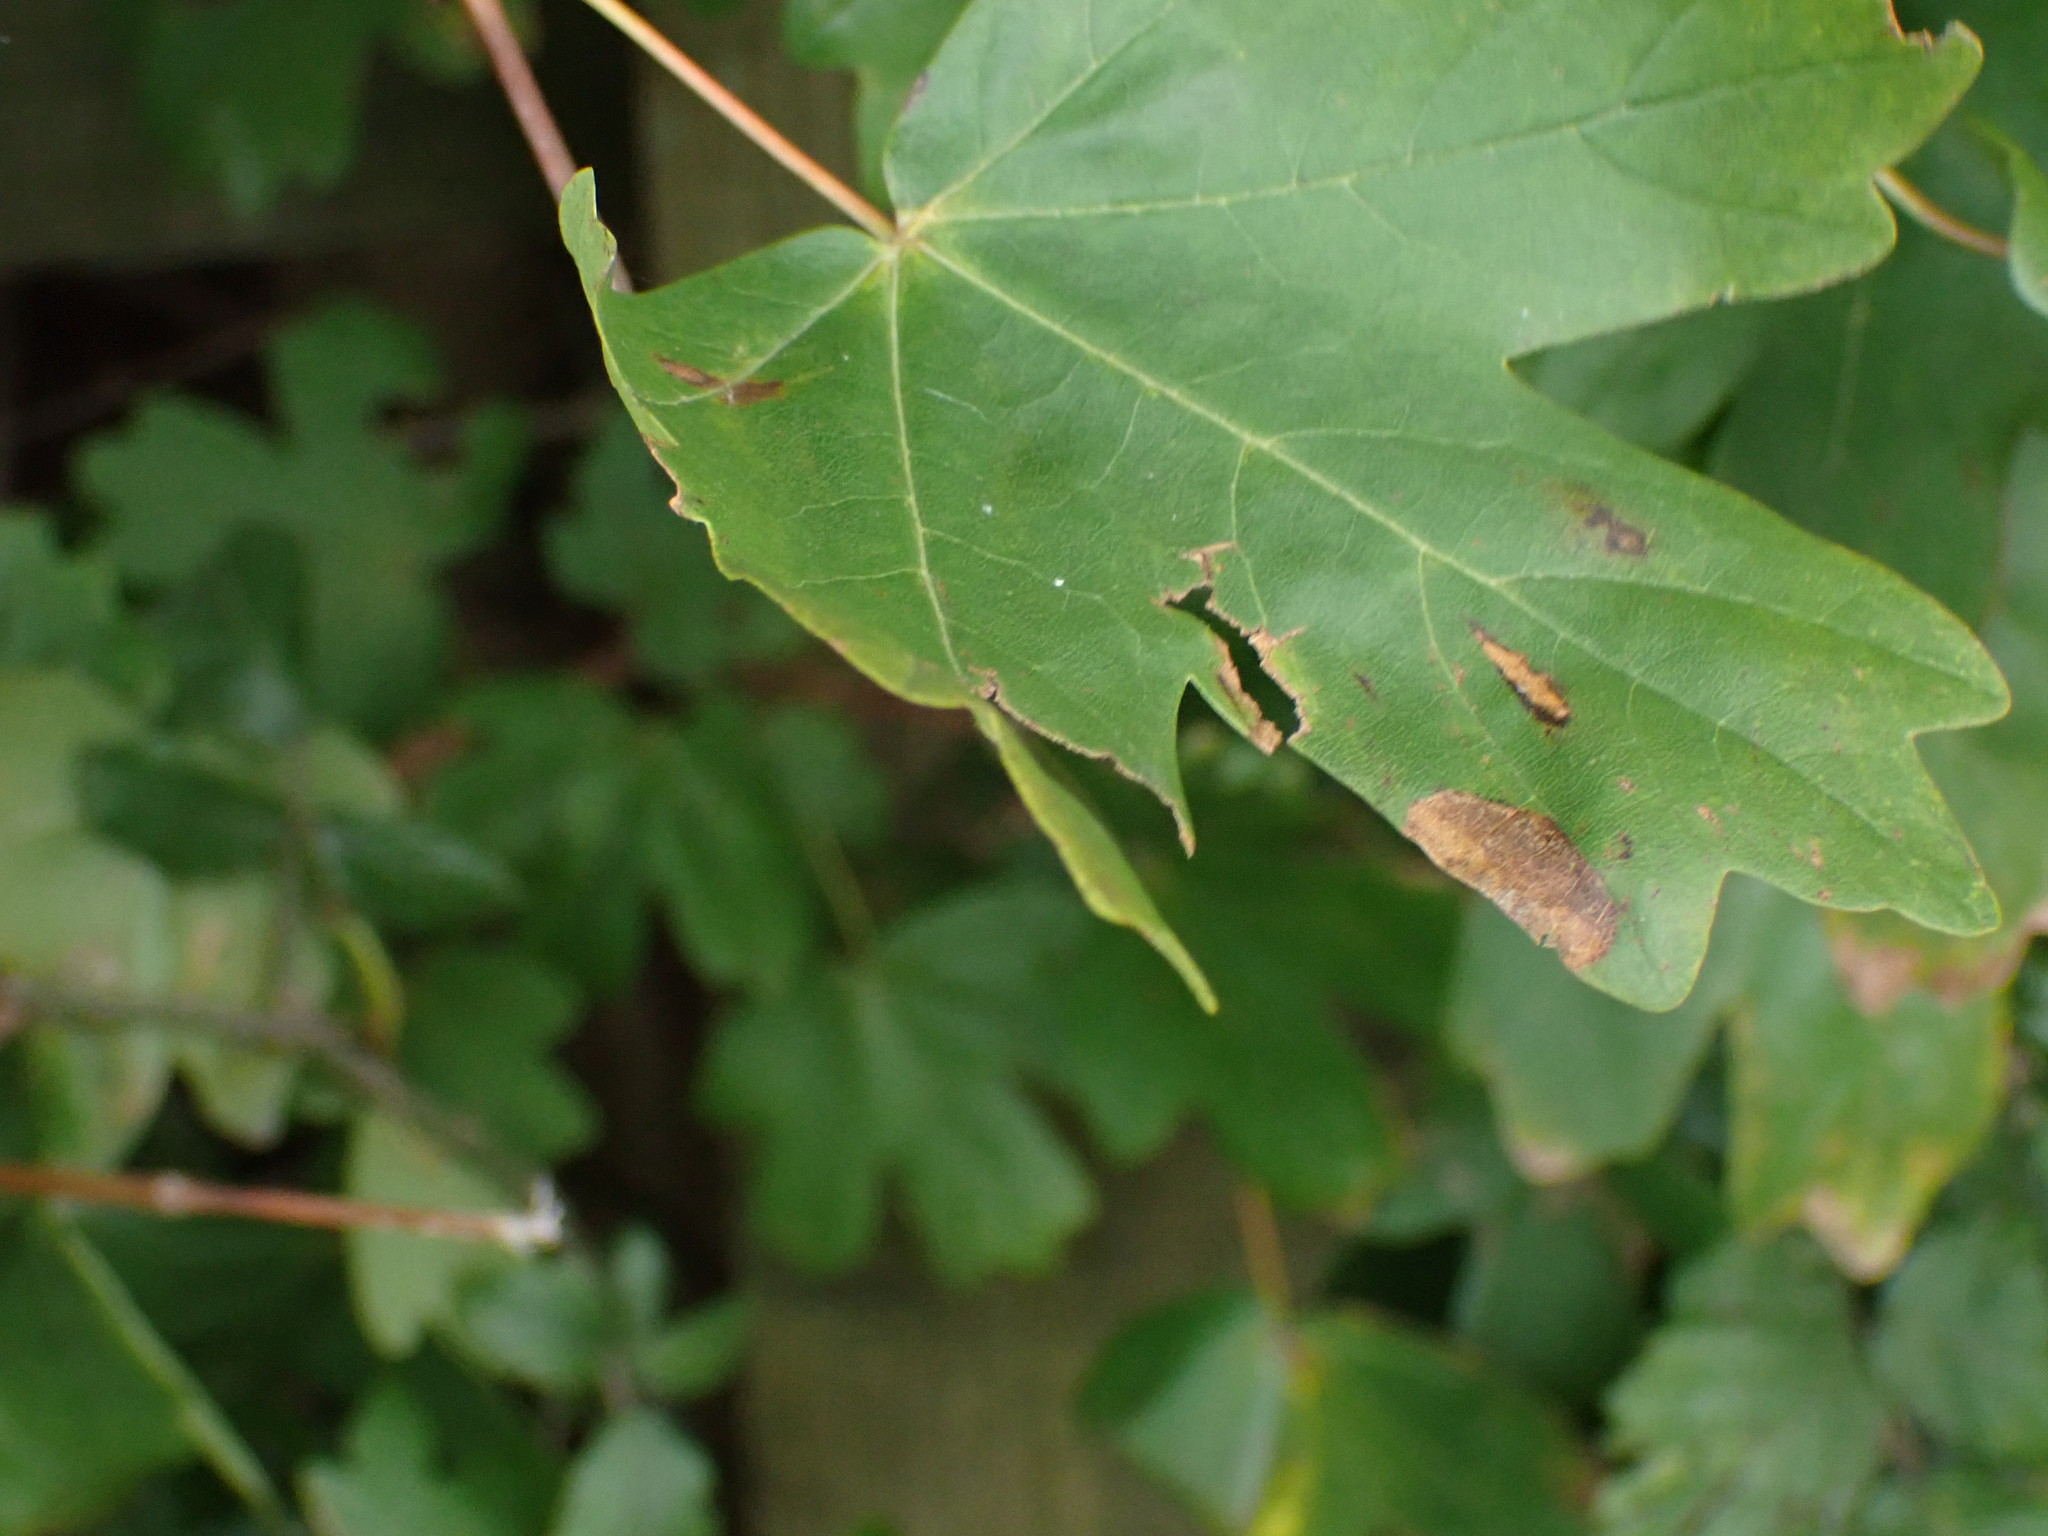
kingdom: Plantae
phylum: Tracheophyta
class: Magnoliopsida
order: Sapindales
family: Sapindaceae
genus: Acer
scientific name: Acer campestre
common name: Field maple
